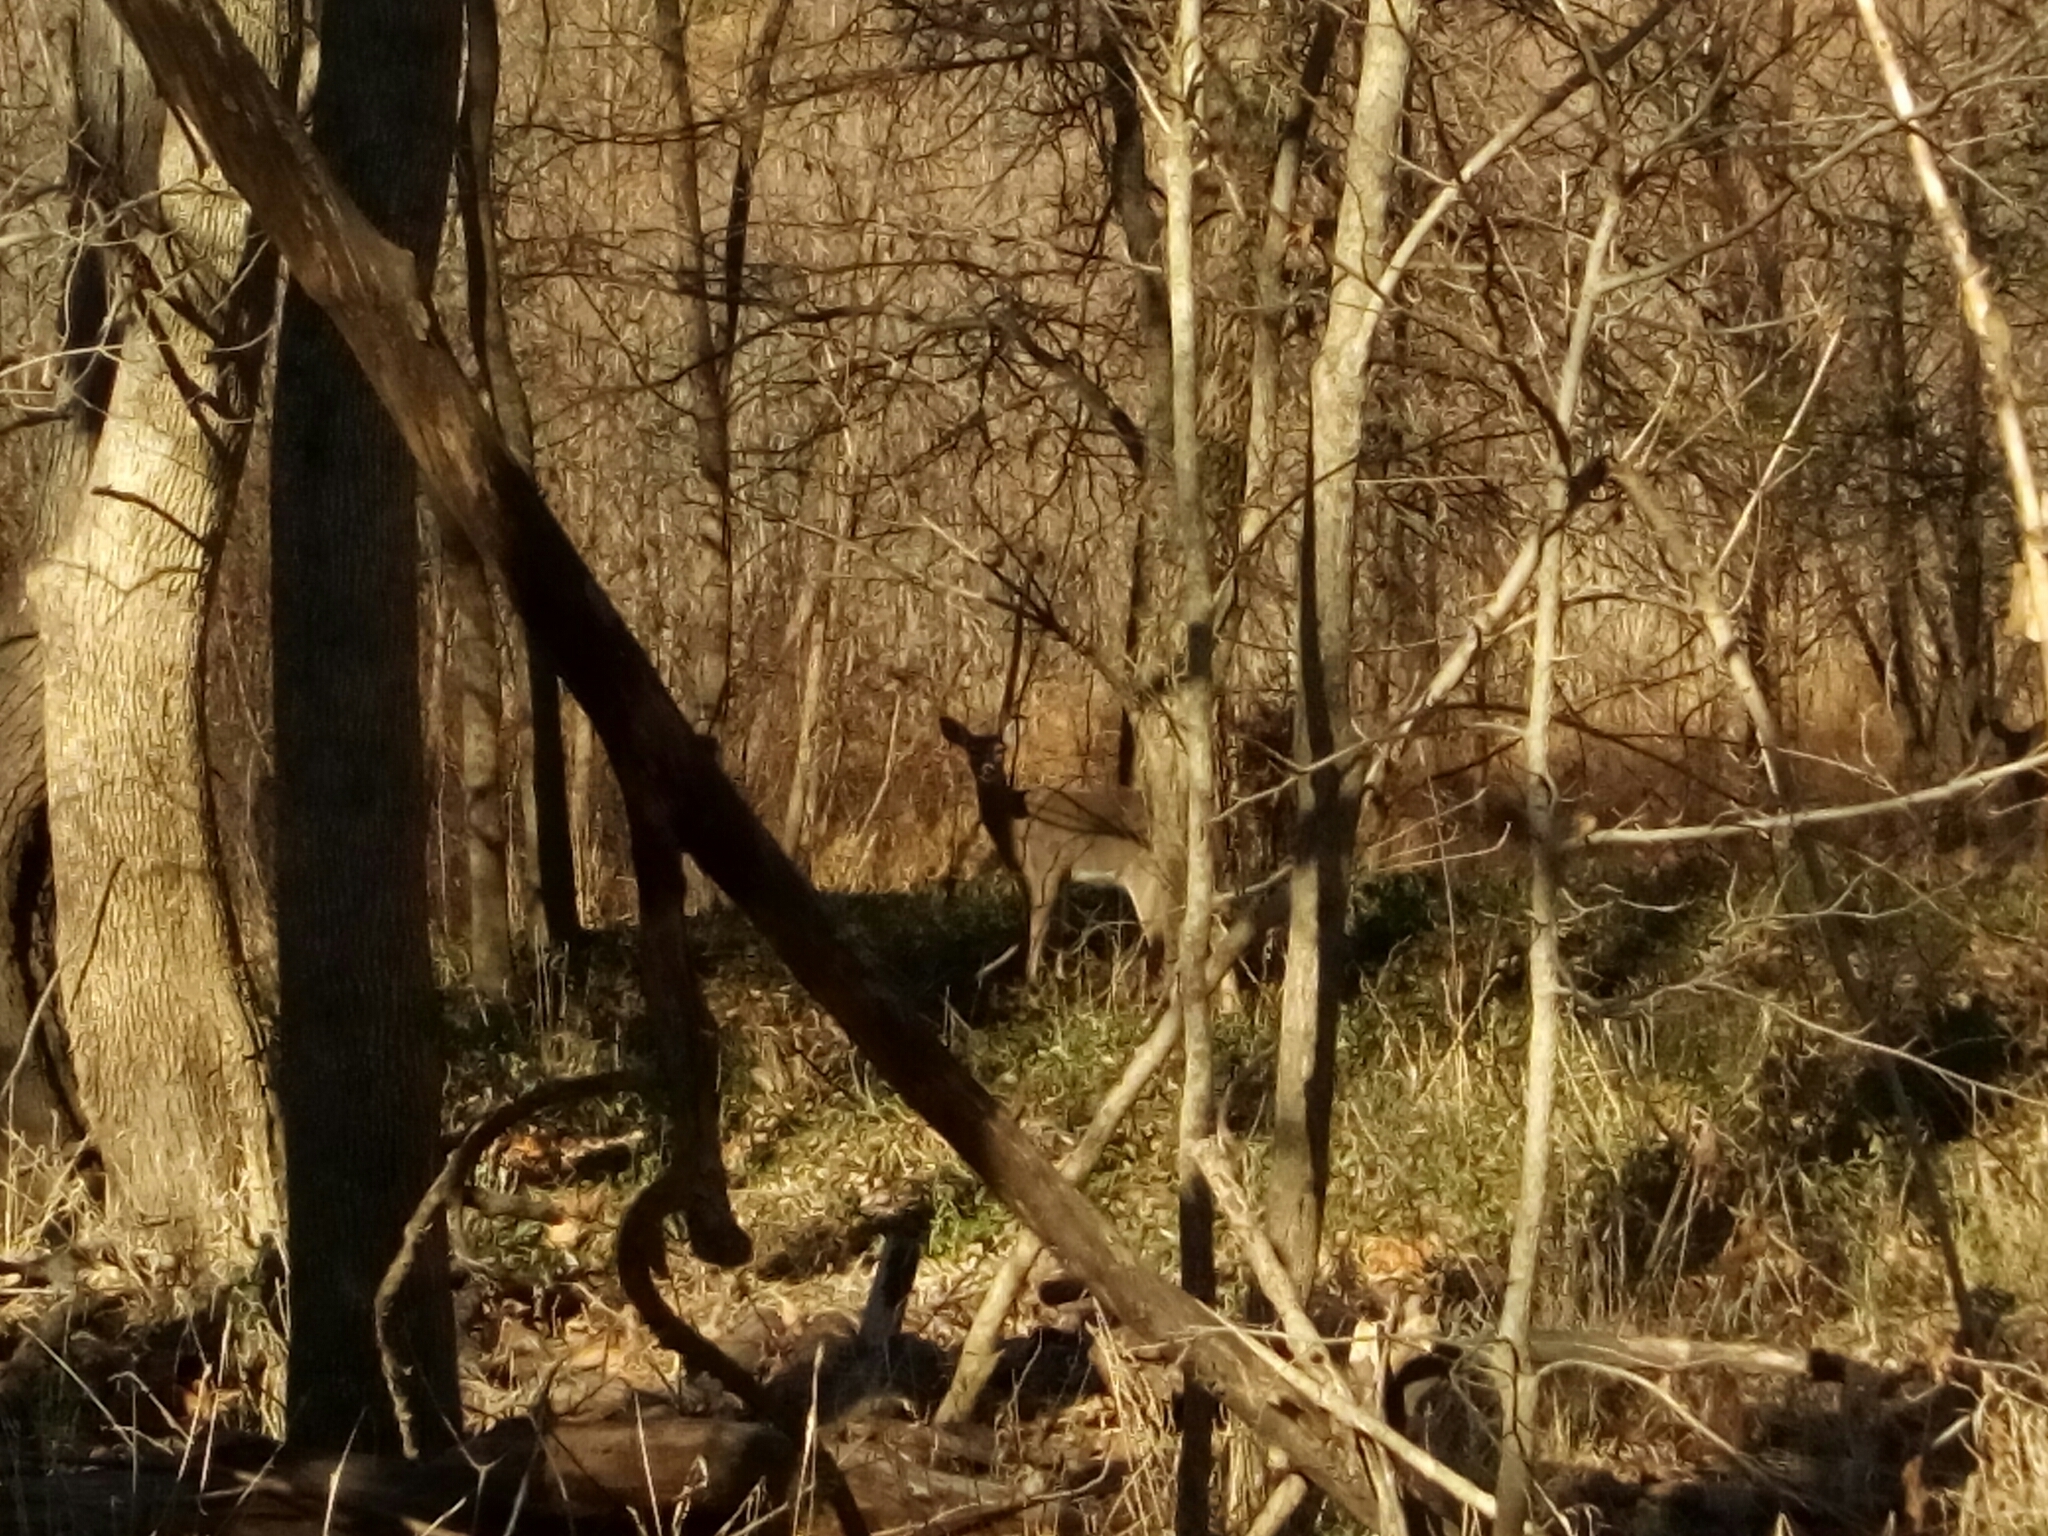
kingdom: Animalia
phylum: Chordata
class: Mammalia
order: Artiodactyla
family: Cervidae
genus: Odocoileus
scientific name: Odocoileus virginianus
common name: White-tailed deer
